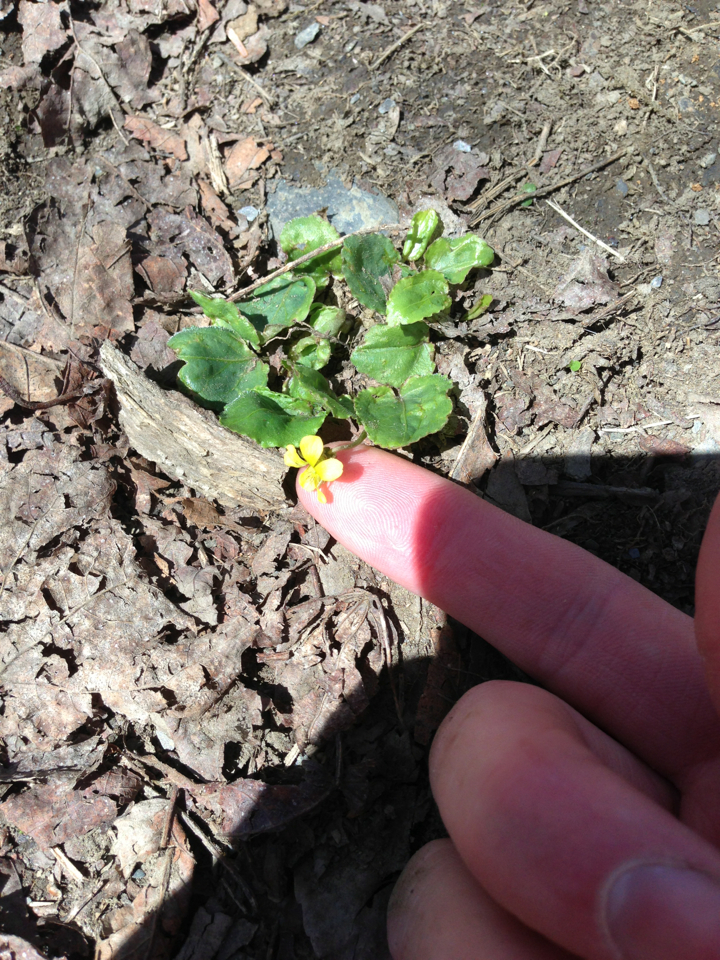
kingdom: Plantae
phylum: Tracheophyta
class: Magnoliopsida
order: Malpighiales
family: Violaceae
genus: Viola
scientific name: Viola rotundifolia
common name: Early yellow violet
